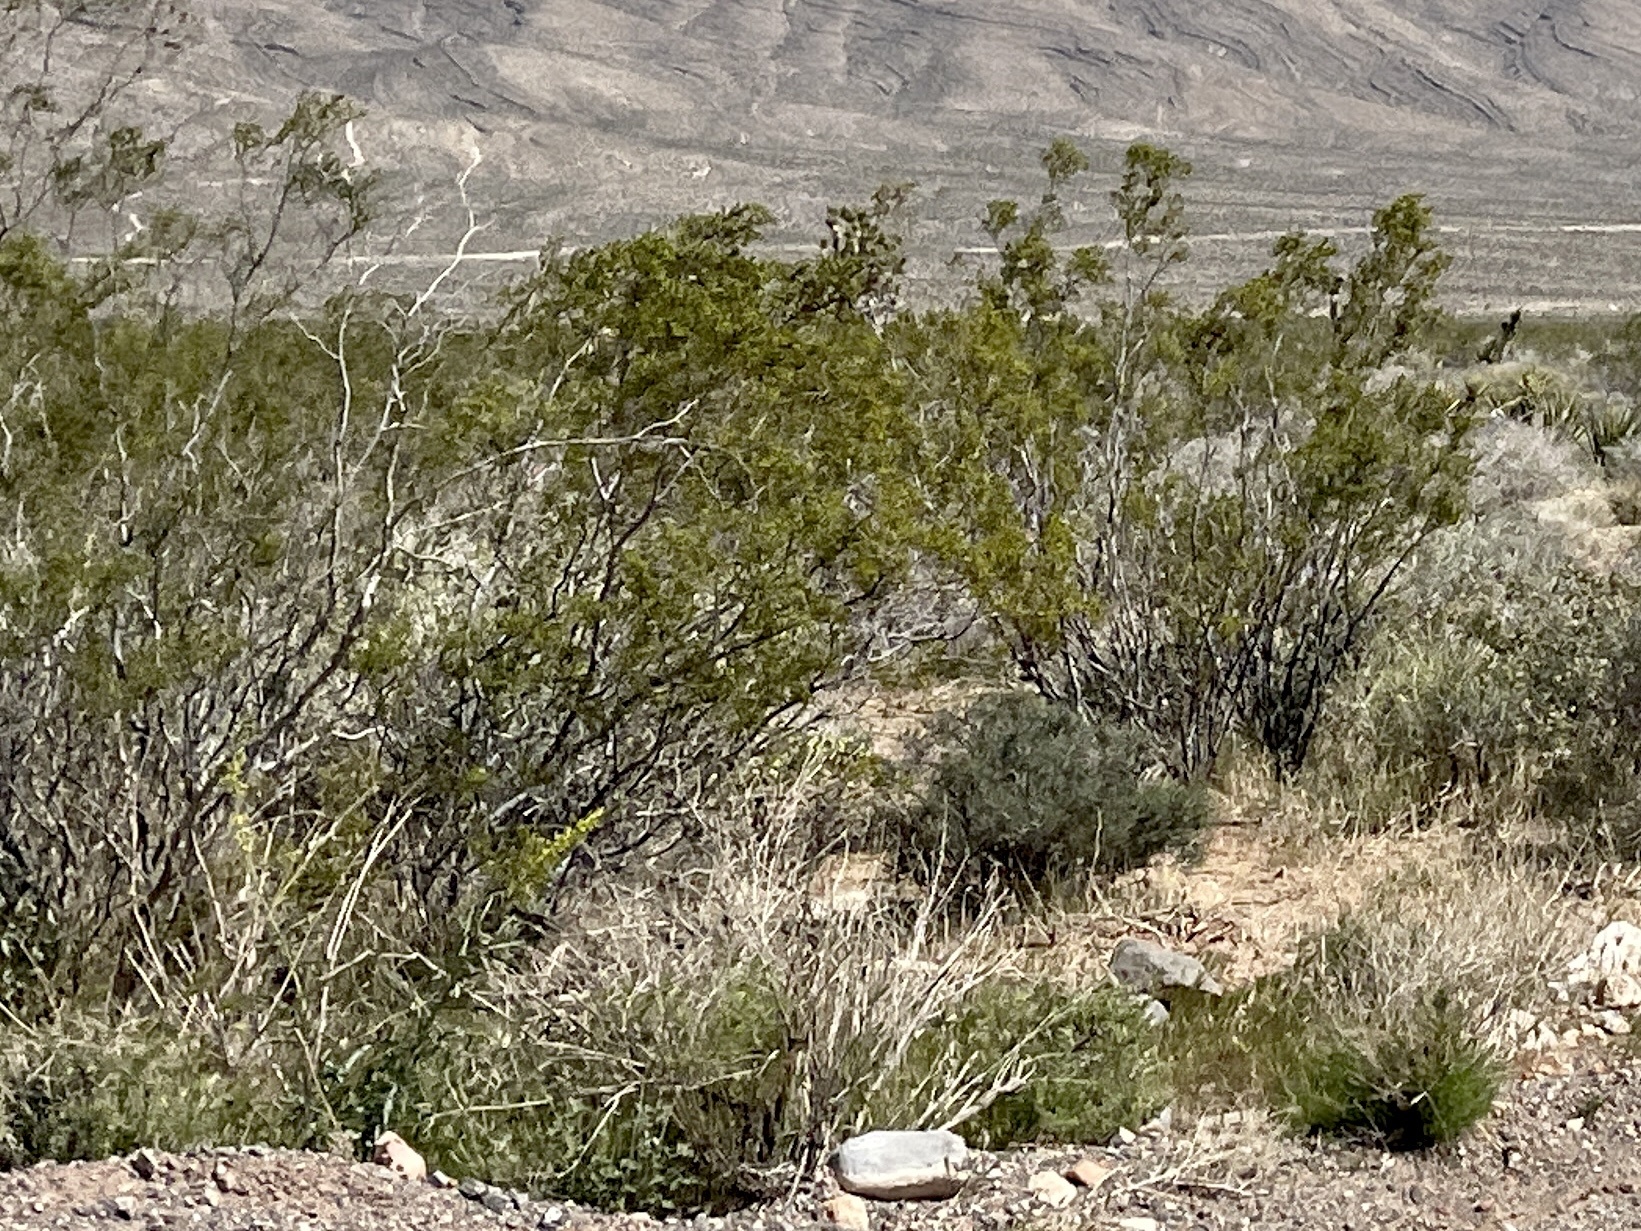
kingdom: Plantae
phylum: Tracheophyta
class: Magnoliopsida
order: Zygophyllales
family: Zygophyllaceae
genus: Larrea
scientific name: Larrea tridentata
